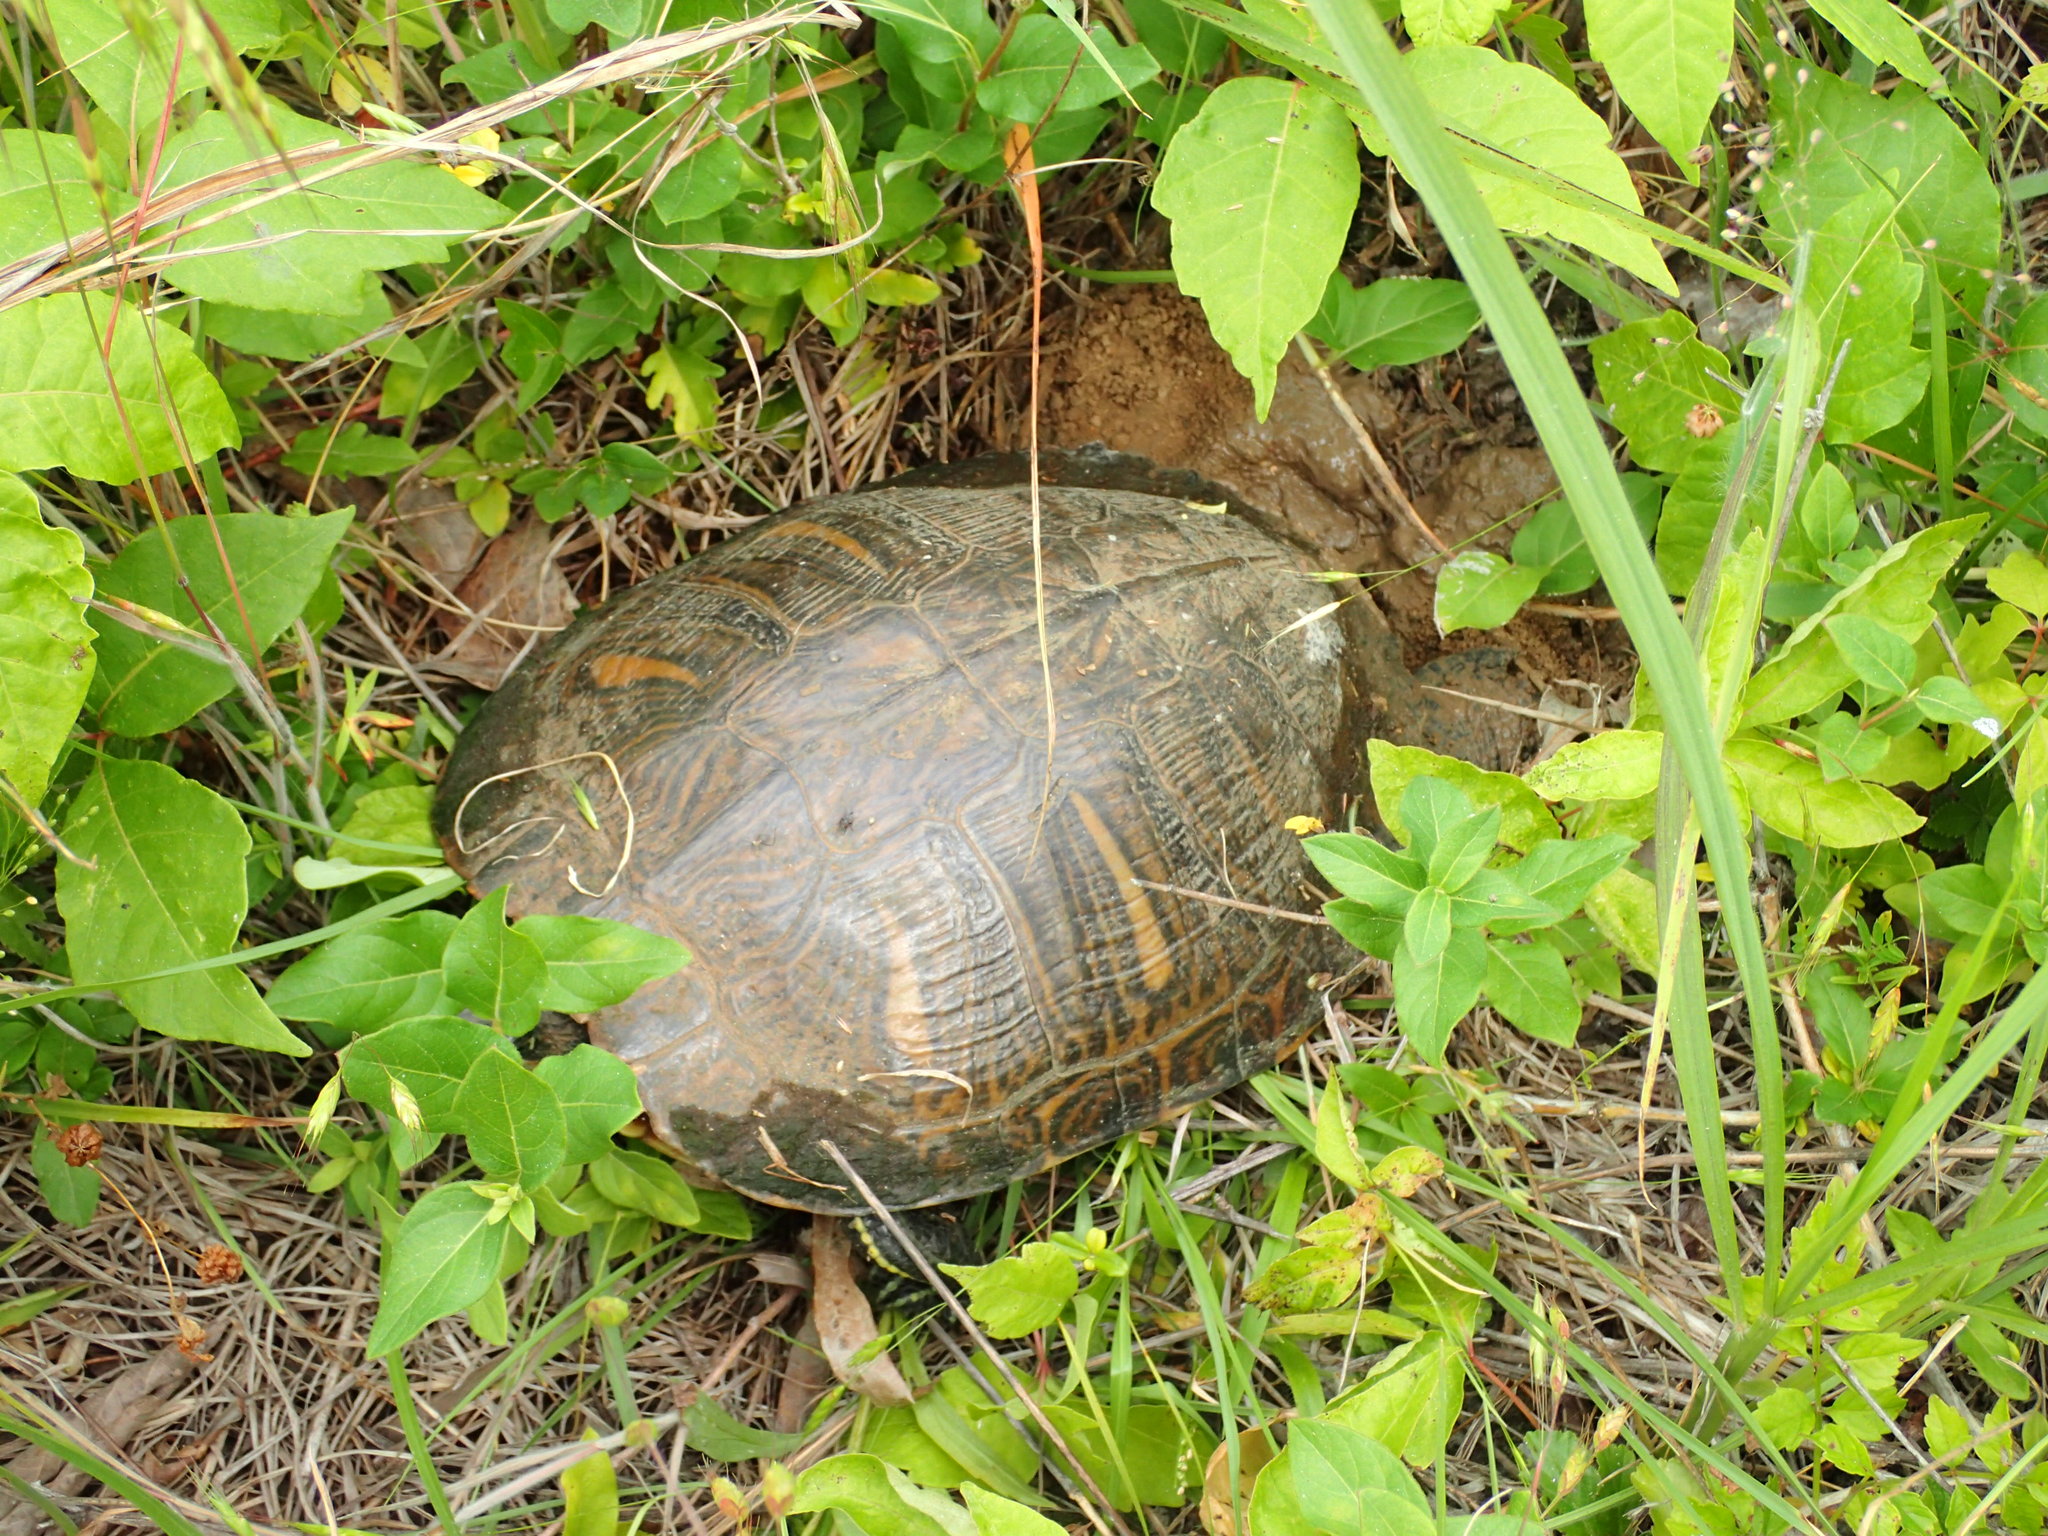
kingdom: Animalia
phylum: Chordata
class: Testudines
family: Emydidae
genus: Trachemys
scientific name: Trachemys scripta
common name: Slider
